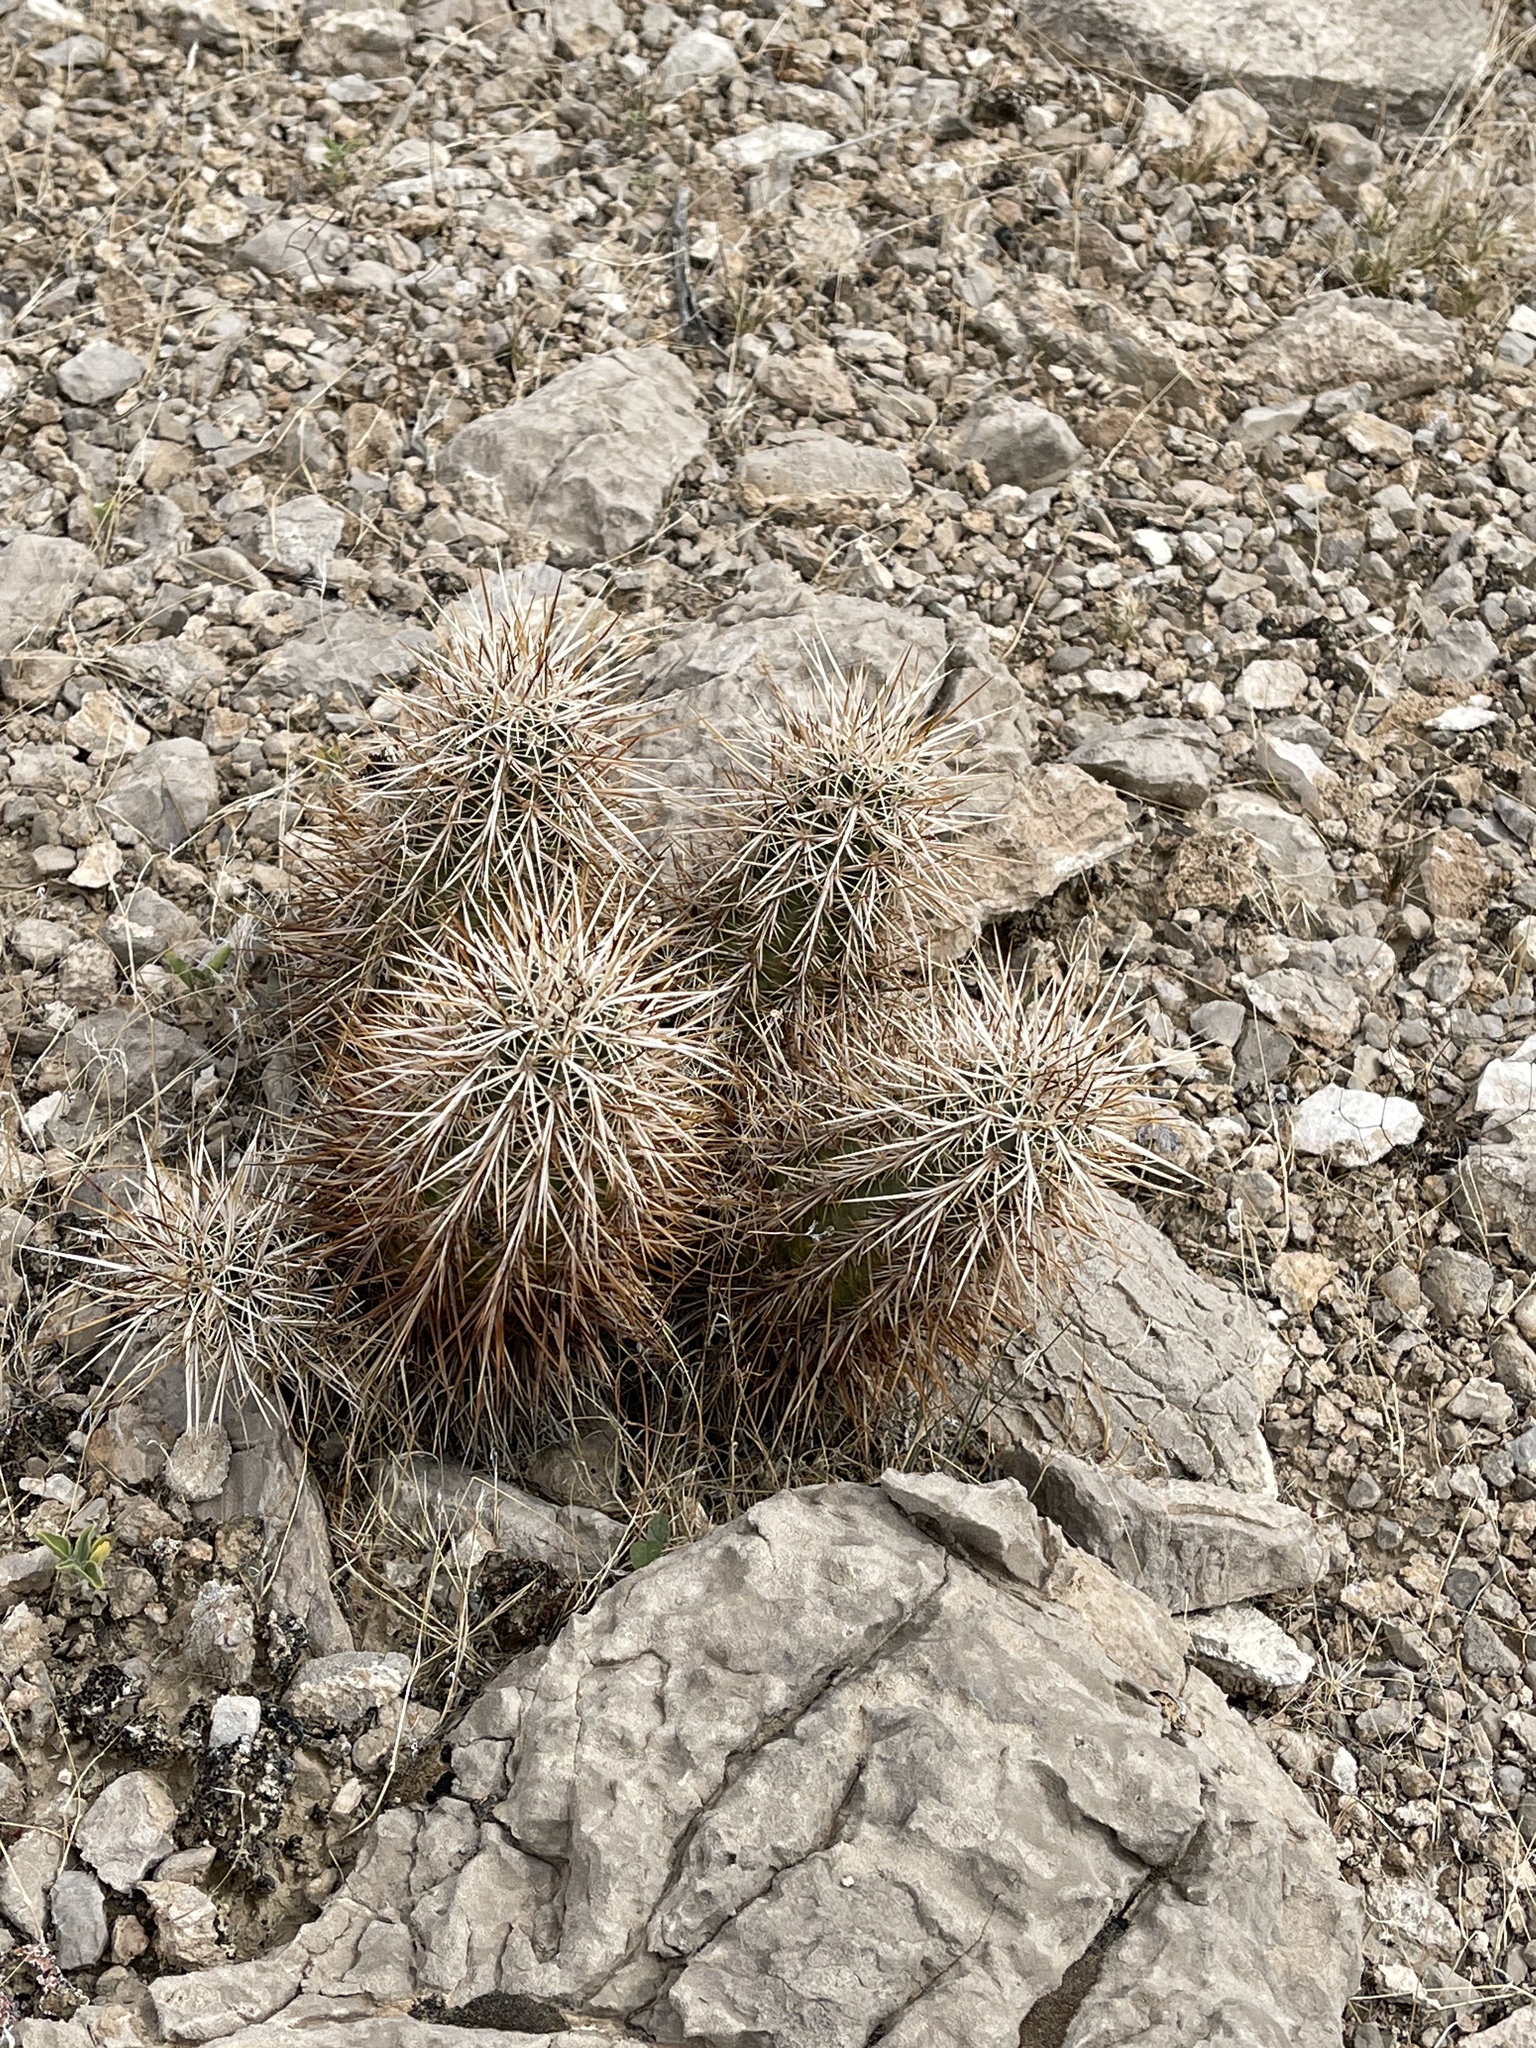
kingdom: Plantae
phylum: Tracheophyta
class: Magnoliopsida
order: Caryophyllales
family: Cactaceae
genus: Echinocereus
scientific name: Echinocereus engelmannii
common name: Engelmann's hedgehog cactus
